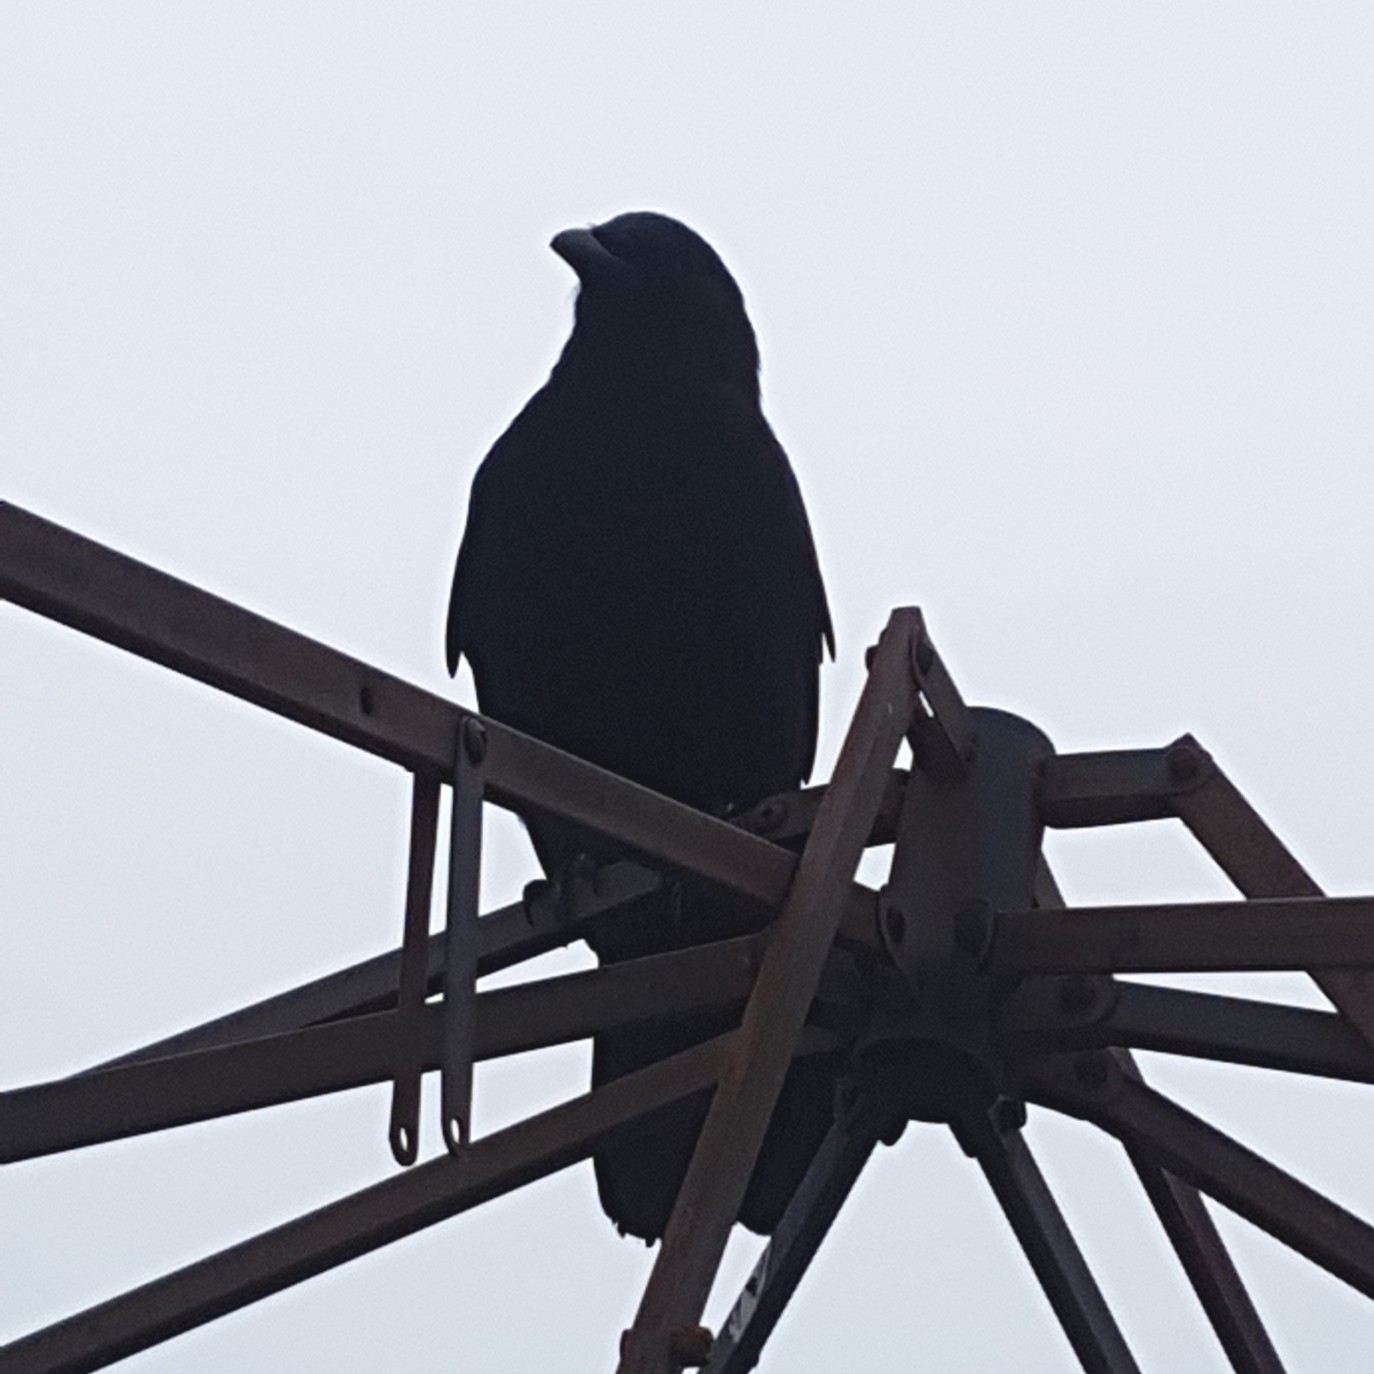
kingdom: Animalia
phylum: Chordata
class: Aves
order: Passeriformes
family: Corvidae
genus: Corvus
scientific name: Corvus brachyrhynchos
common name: American crow
